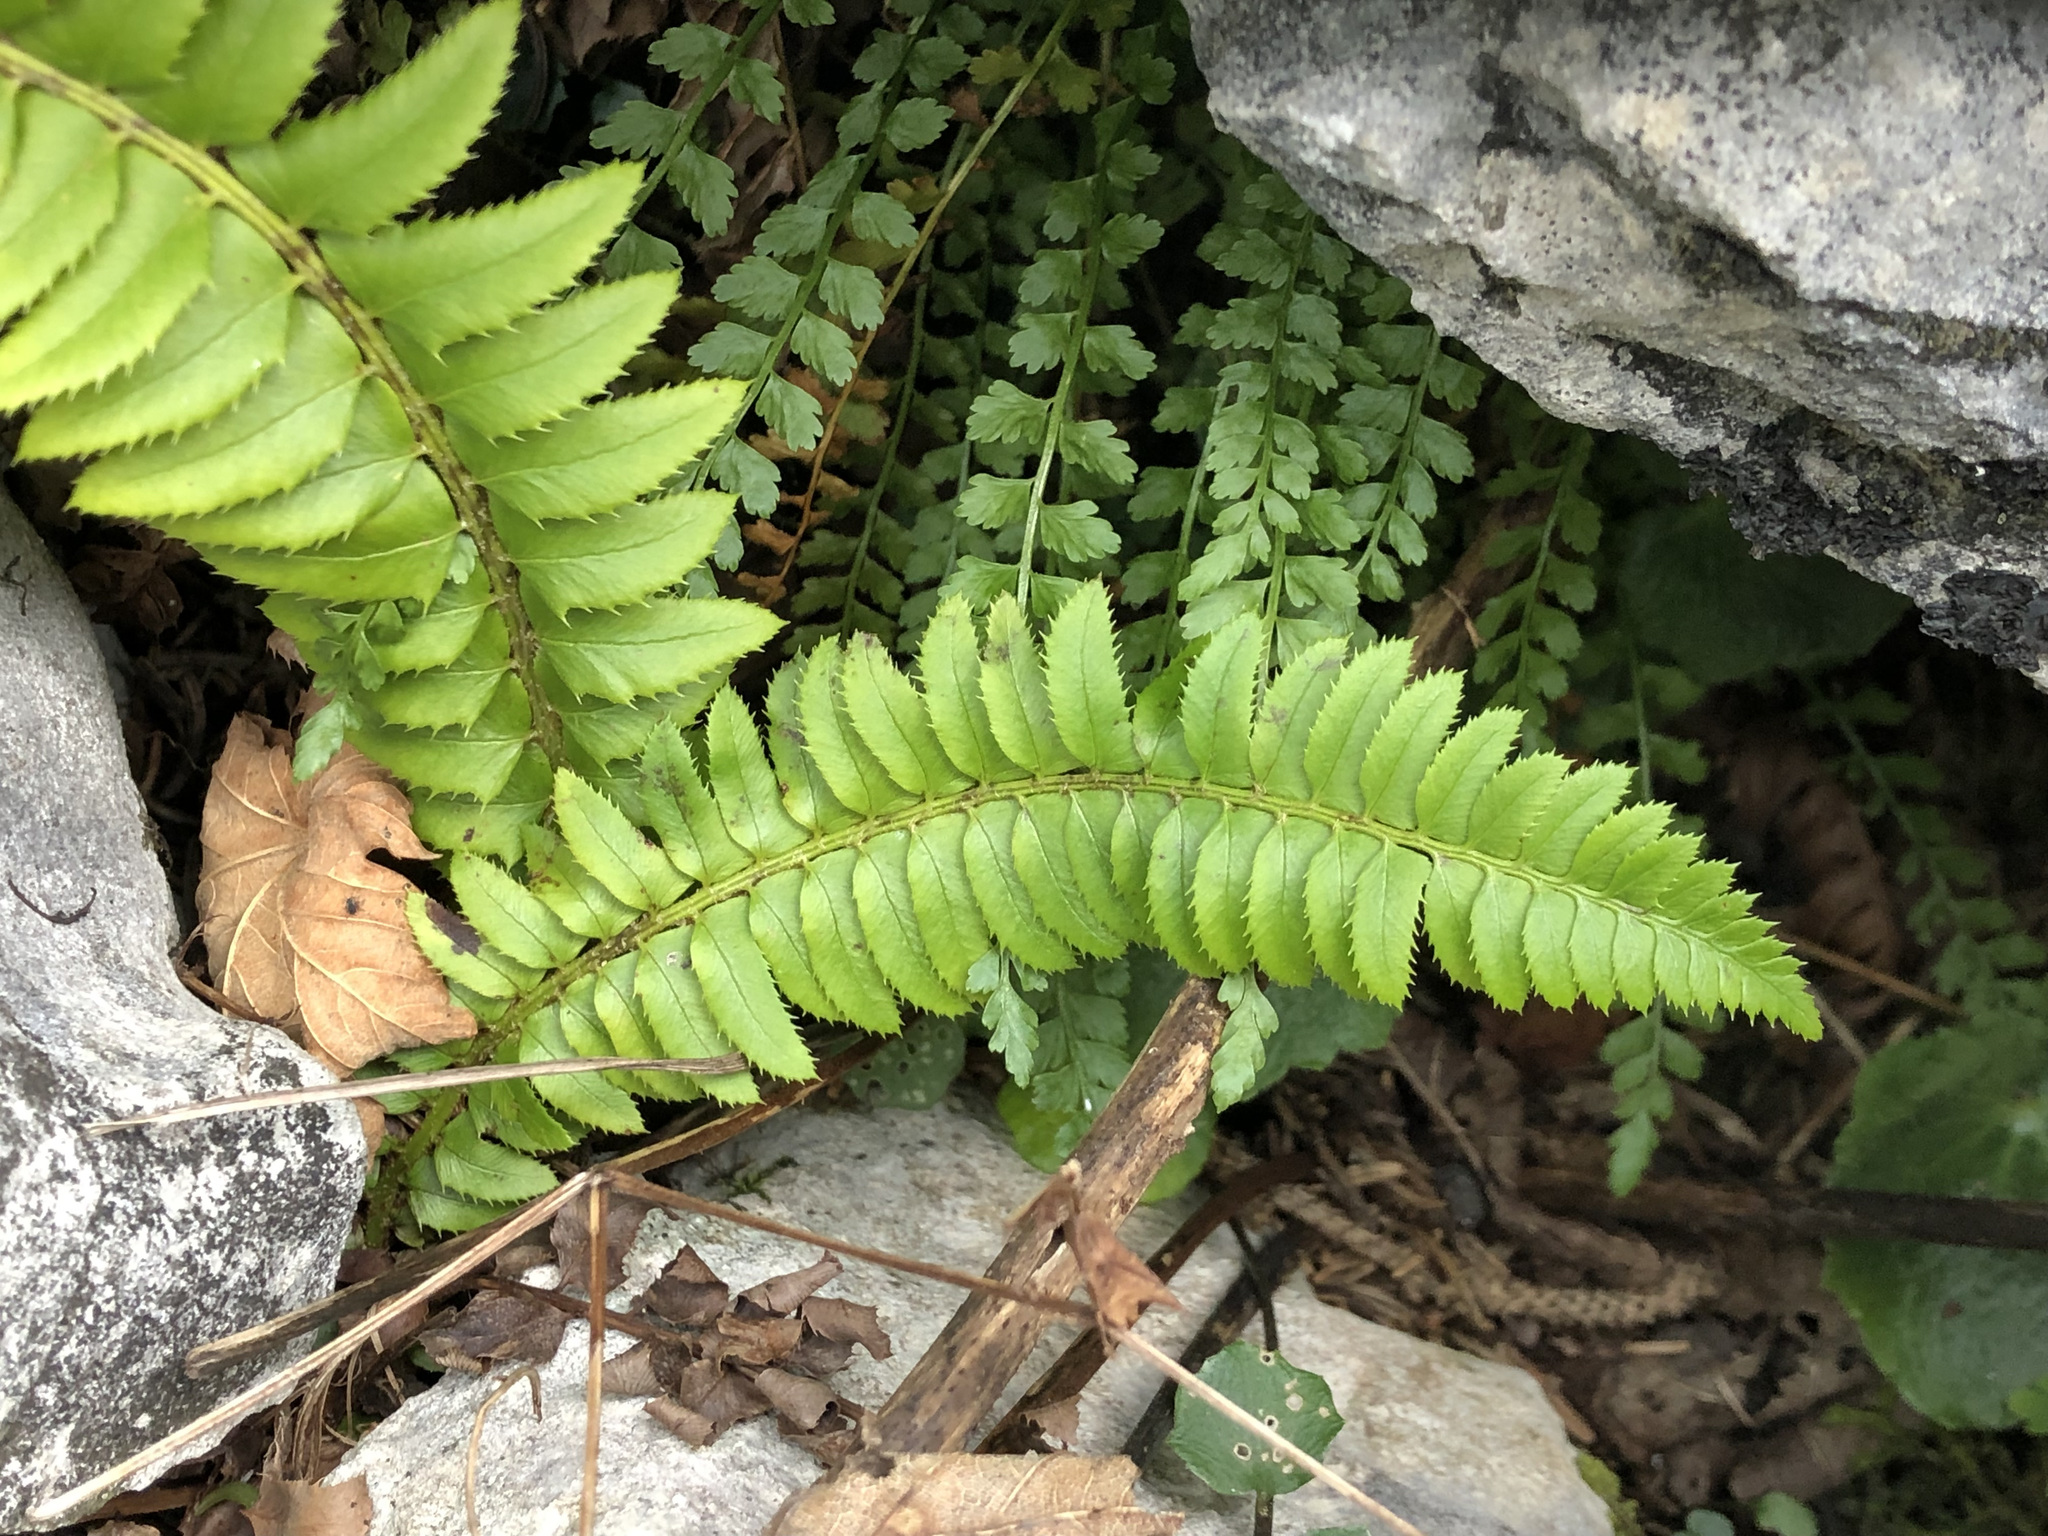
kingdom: Plantae
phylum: Tracheophyta
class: Polypodiopsida
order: Polypodiales
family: Dryopteridaceae
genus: Polystichum
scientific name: Polystichum lonchitis
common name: Holly fern
